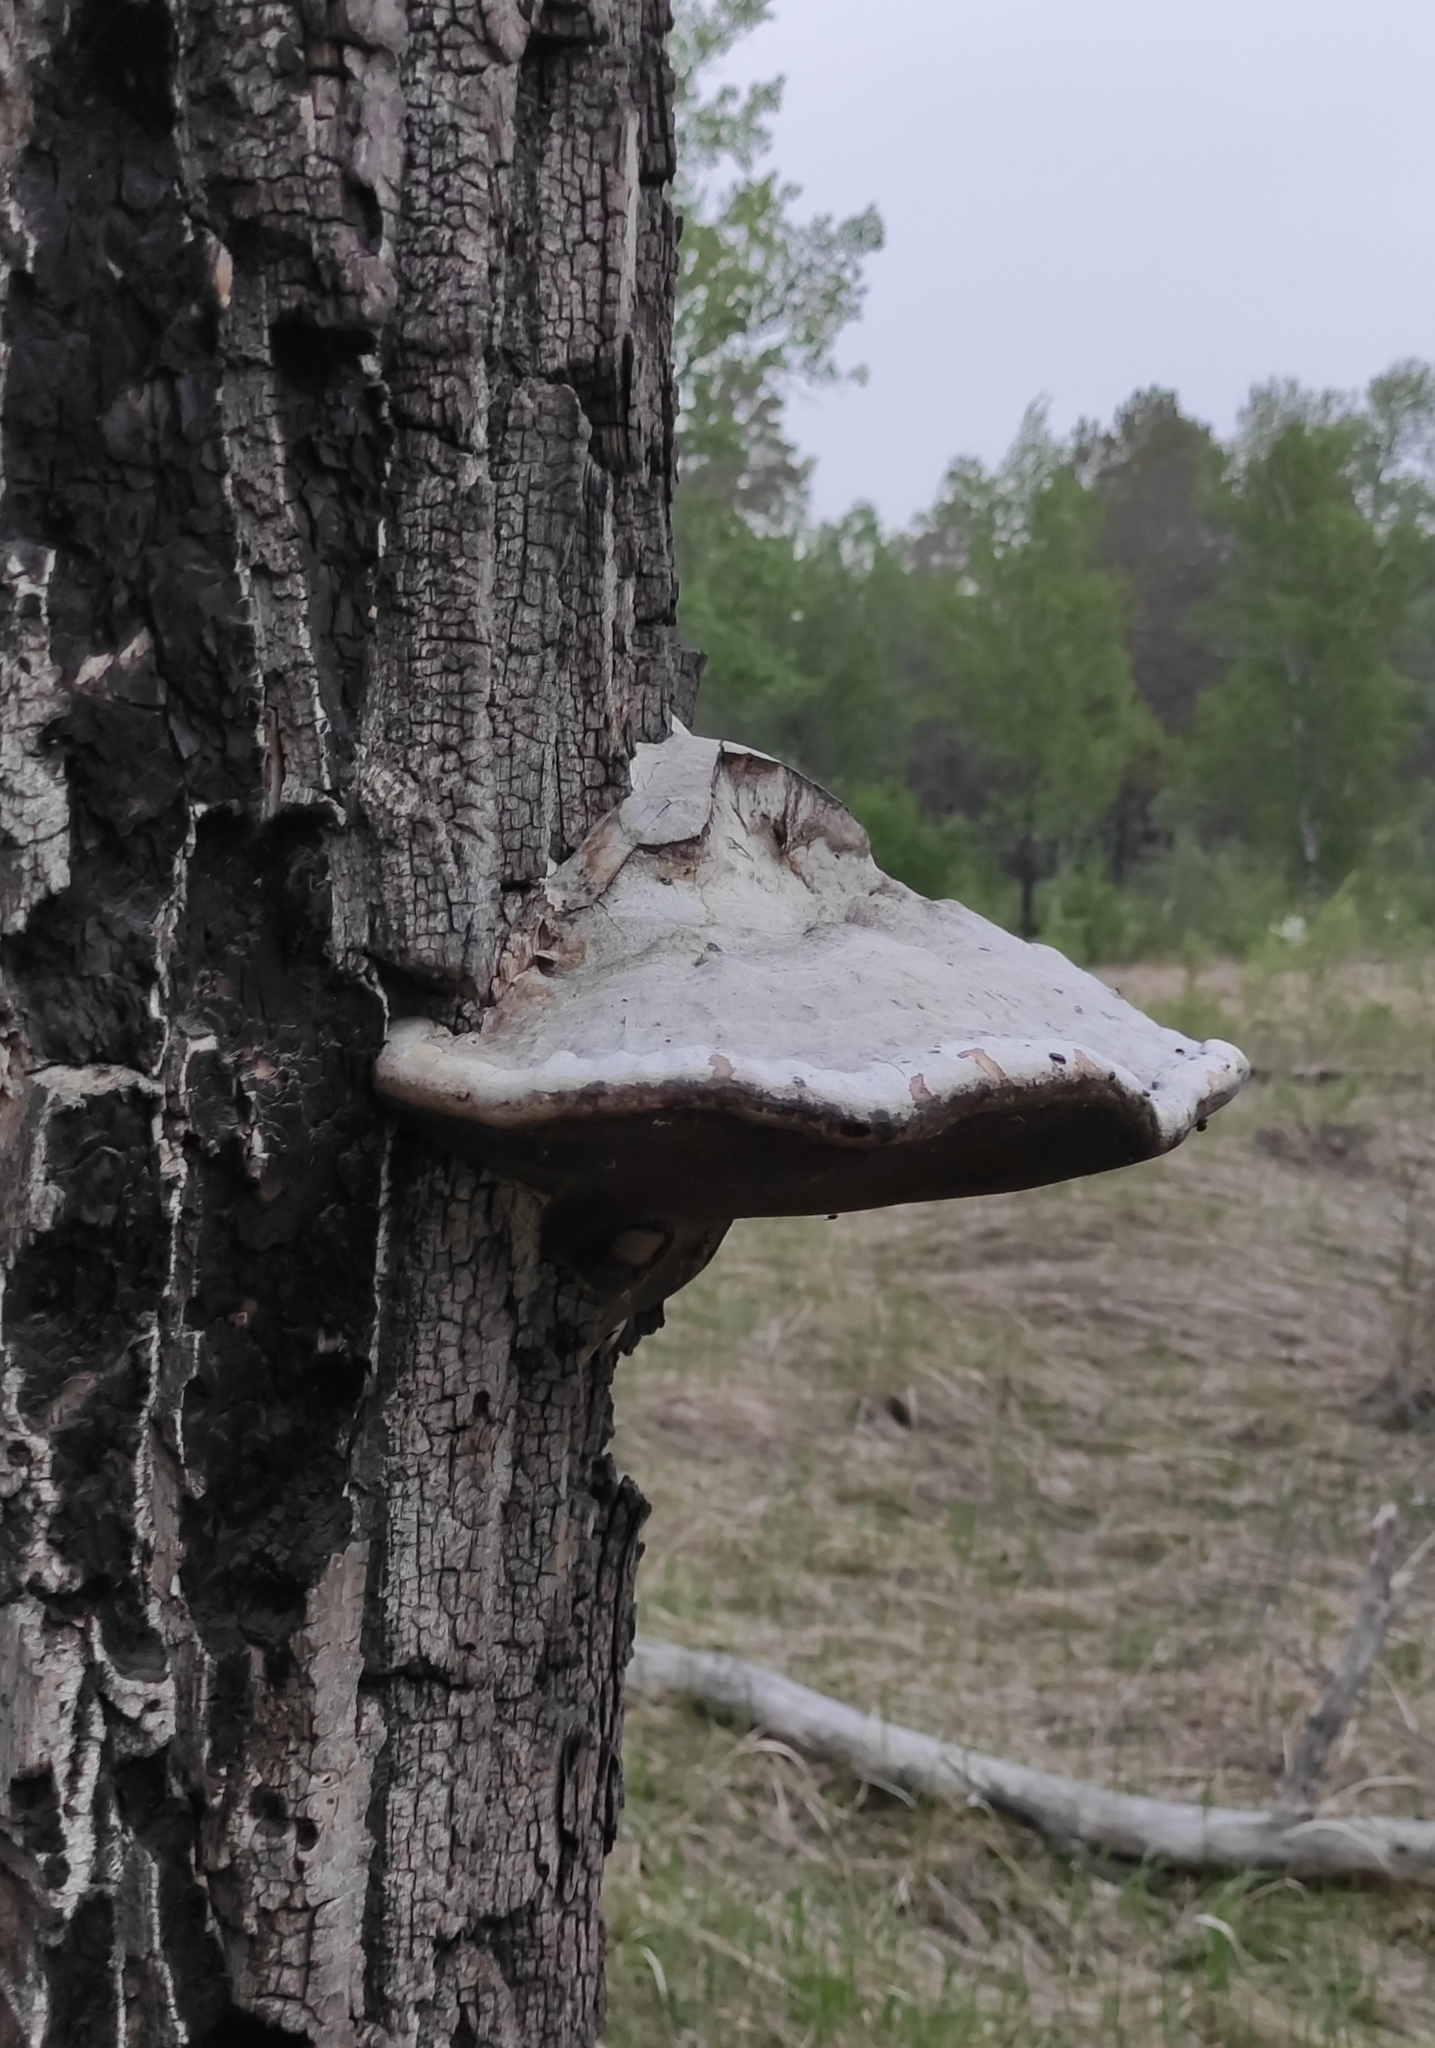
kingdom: Fungi
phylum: Basidiomycota
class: Agaricomycetes
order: Polyporales
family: Polyporaceae
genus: Fomes
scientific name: Fomes fomentarius
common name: Hoof fungus
